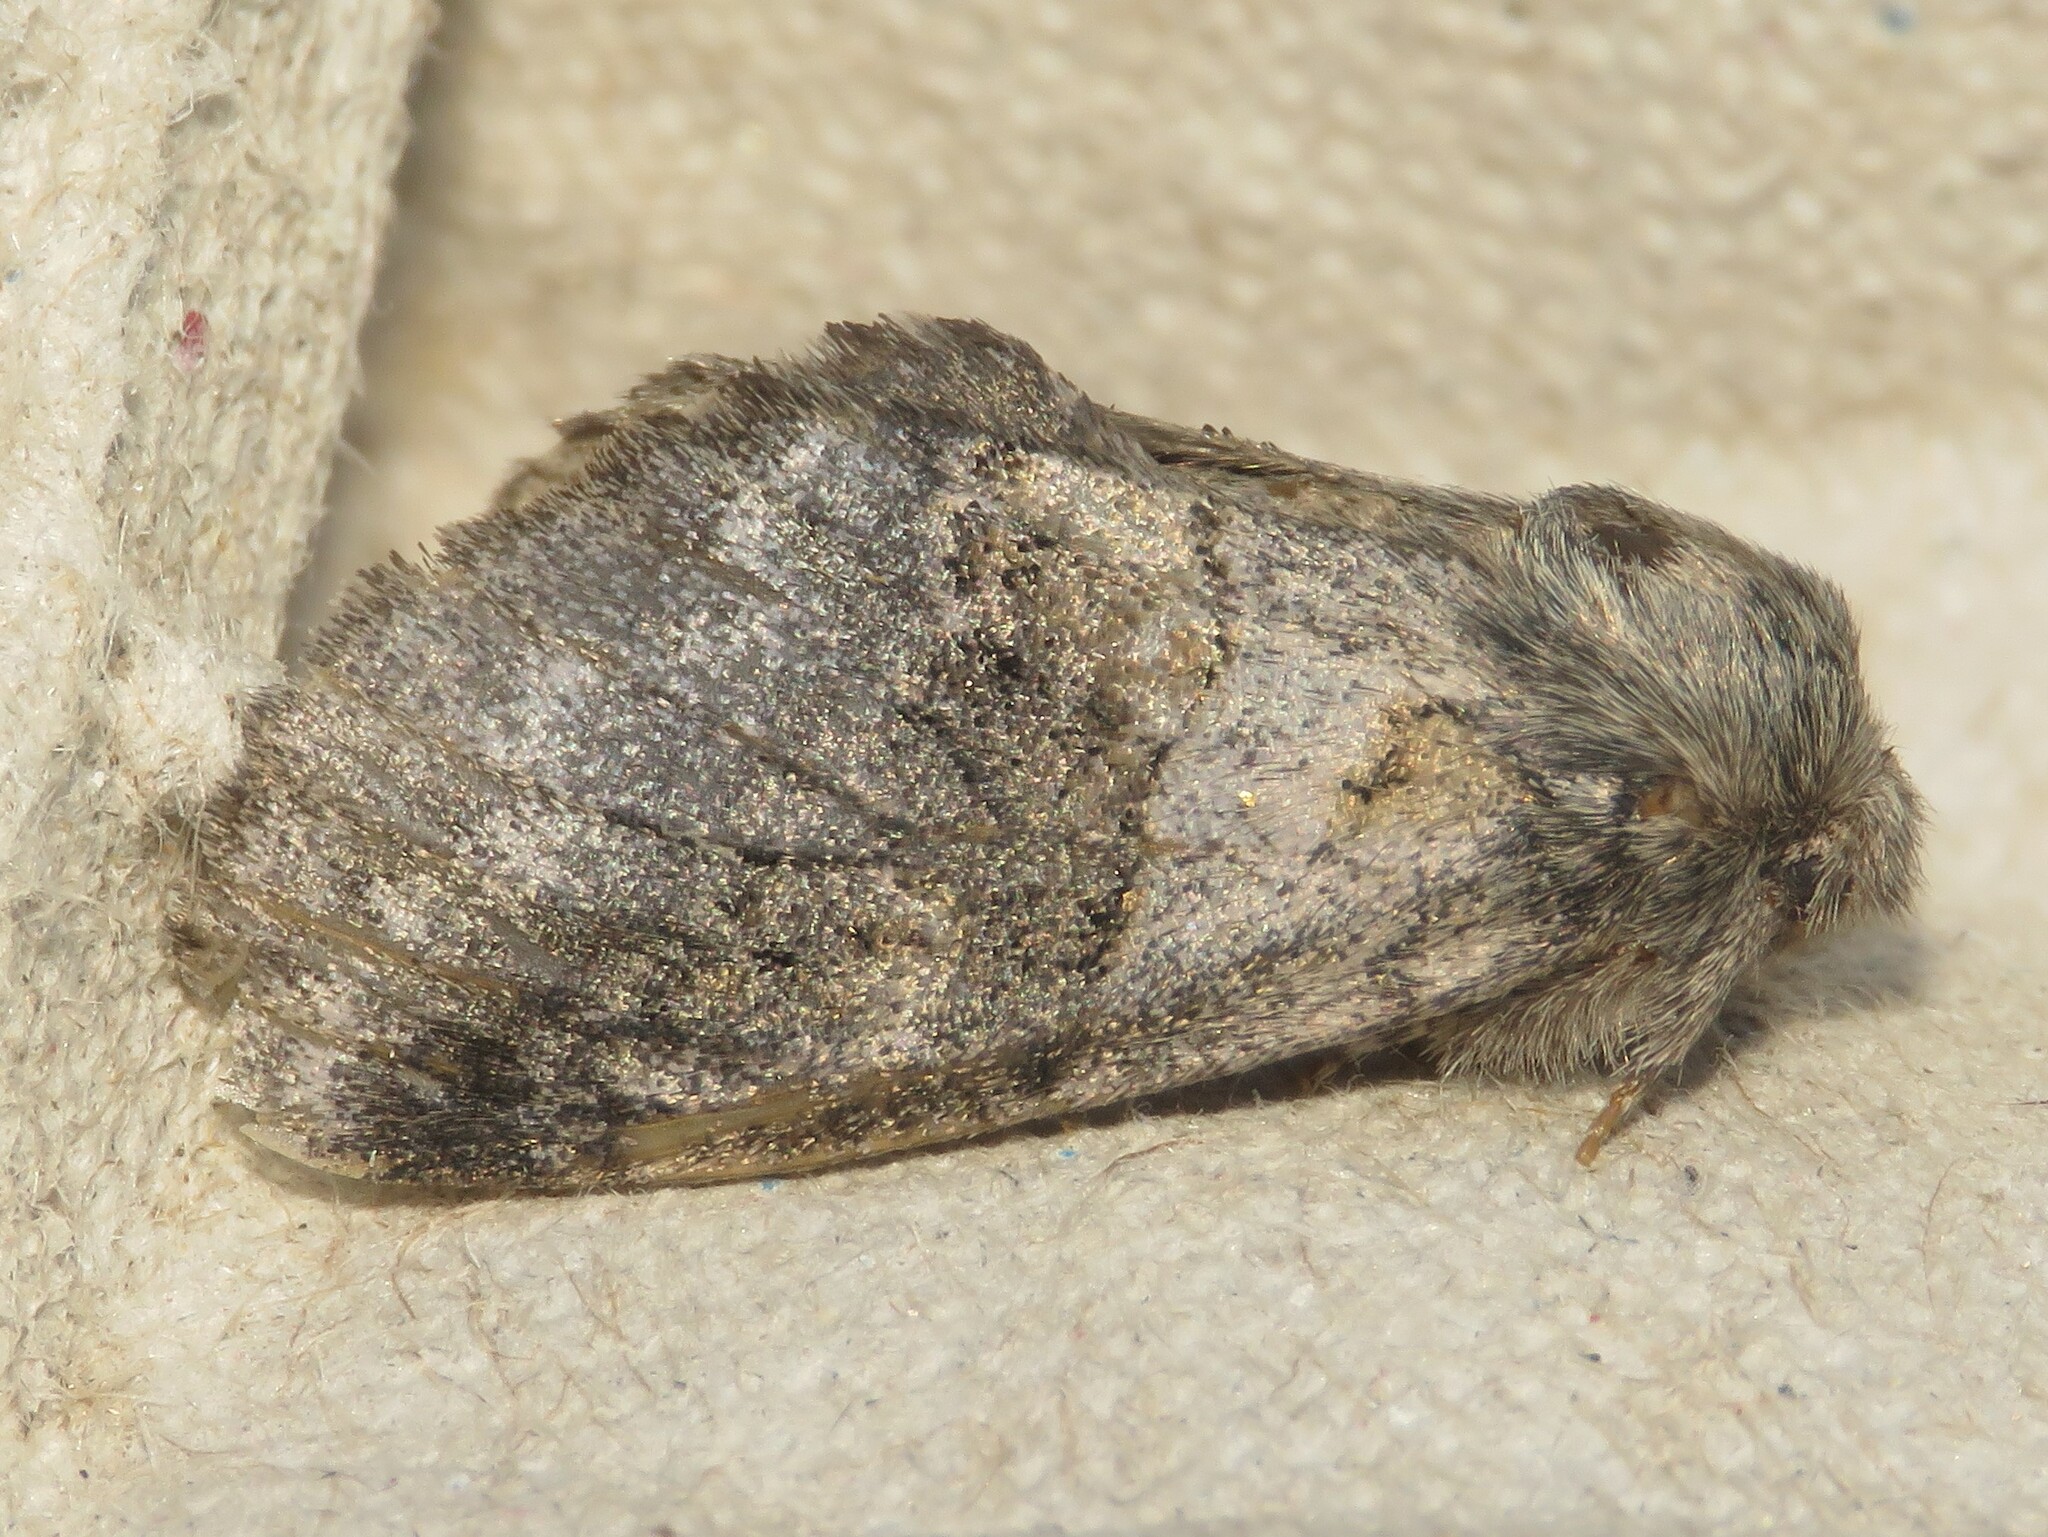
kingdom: Animalia
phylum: Arthropoda
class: Insecta
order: Lepidoptera
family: Notodontidae
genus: Gluphisia
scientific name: Gluphisia septentrionis
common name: Common gluphisia
